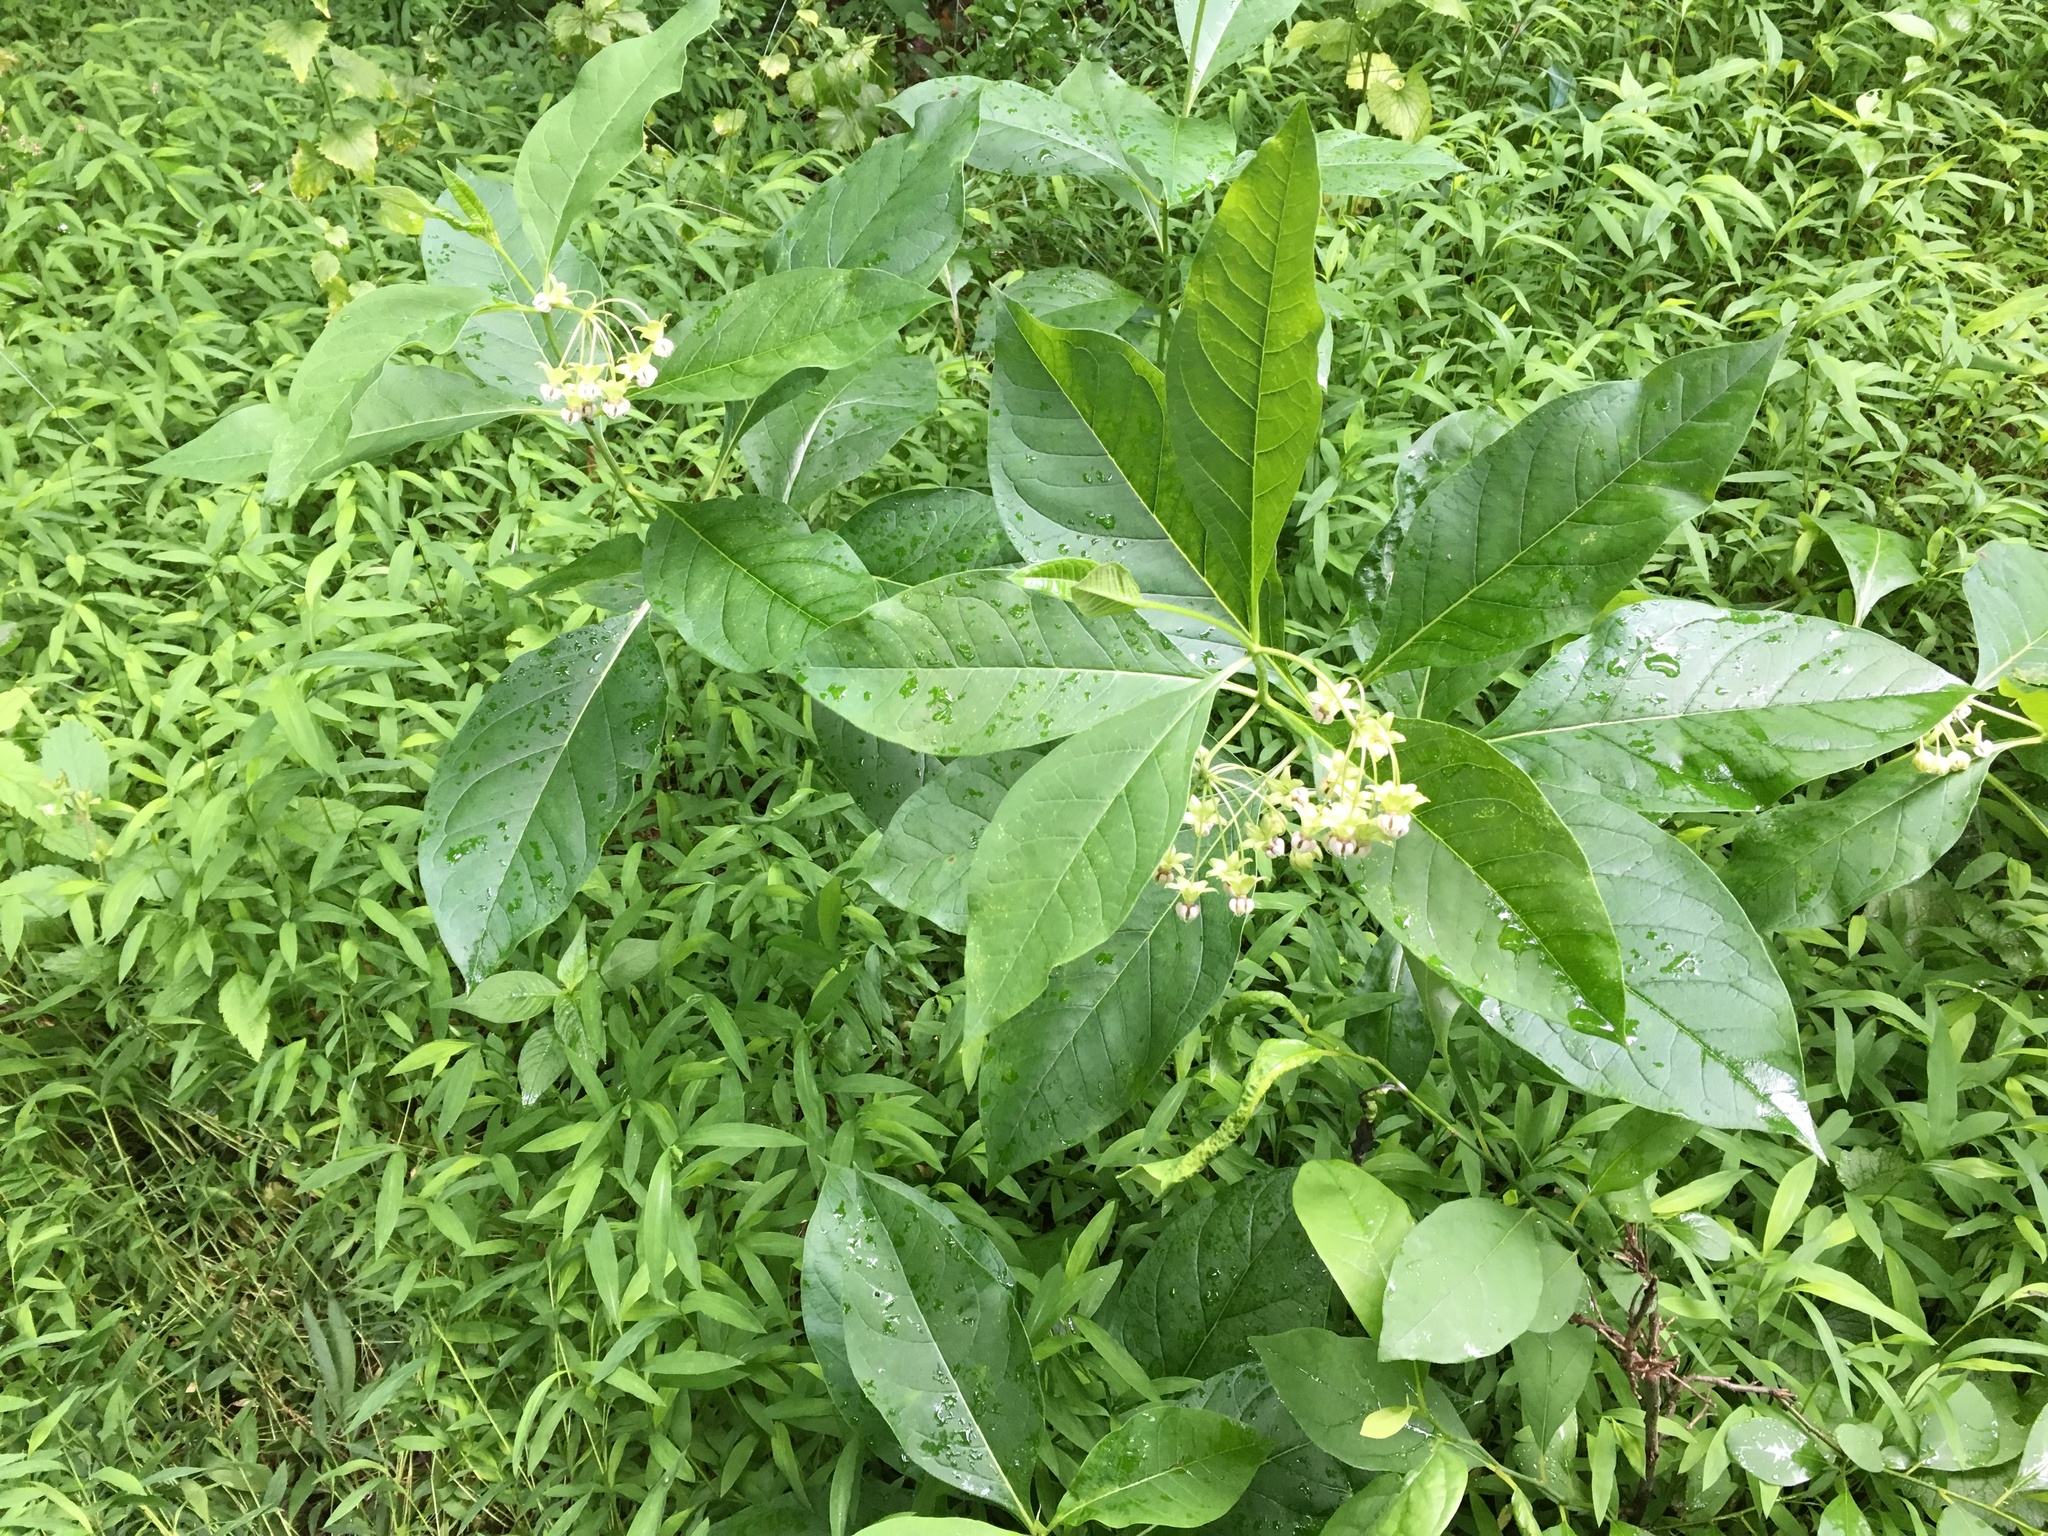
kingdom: Plantae
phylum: Tracheophyta
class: Magnoliopsida
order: Gentianales
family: Apocynaceae
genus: Asclepias
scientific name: Asclepias exaltata
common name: Poke milkweed
